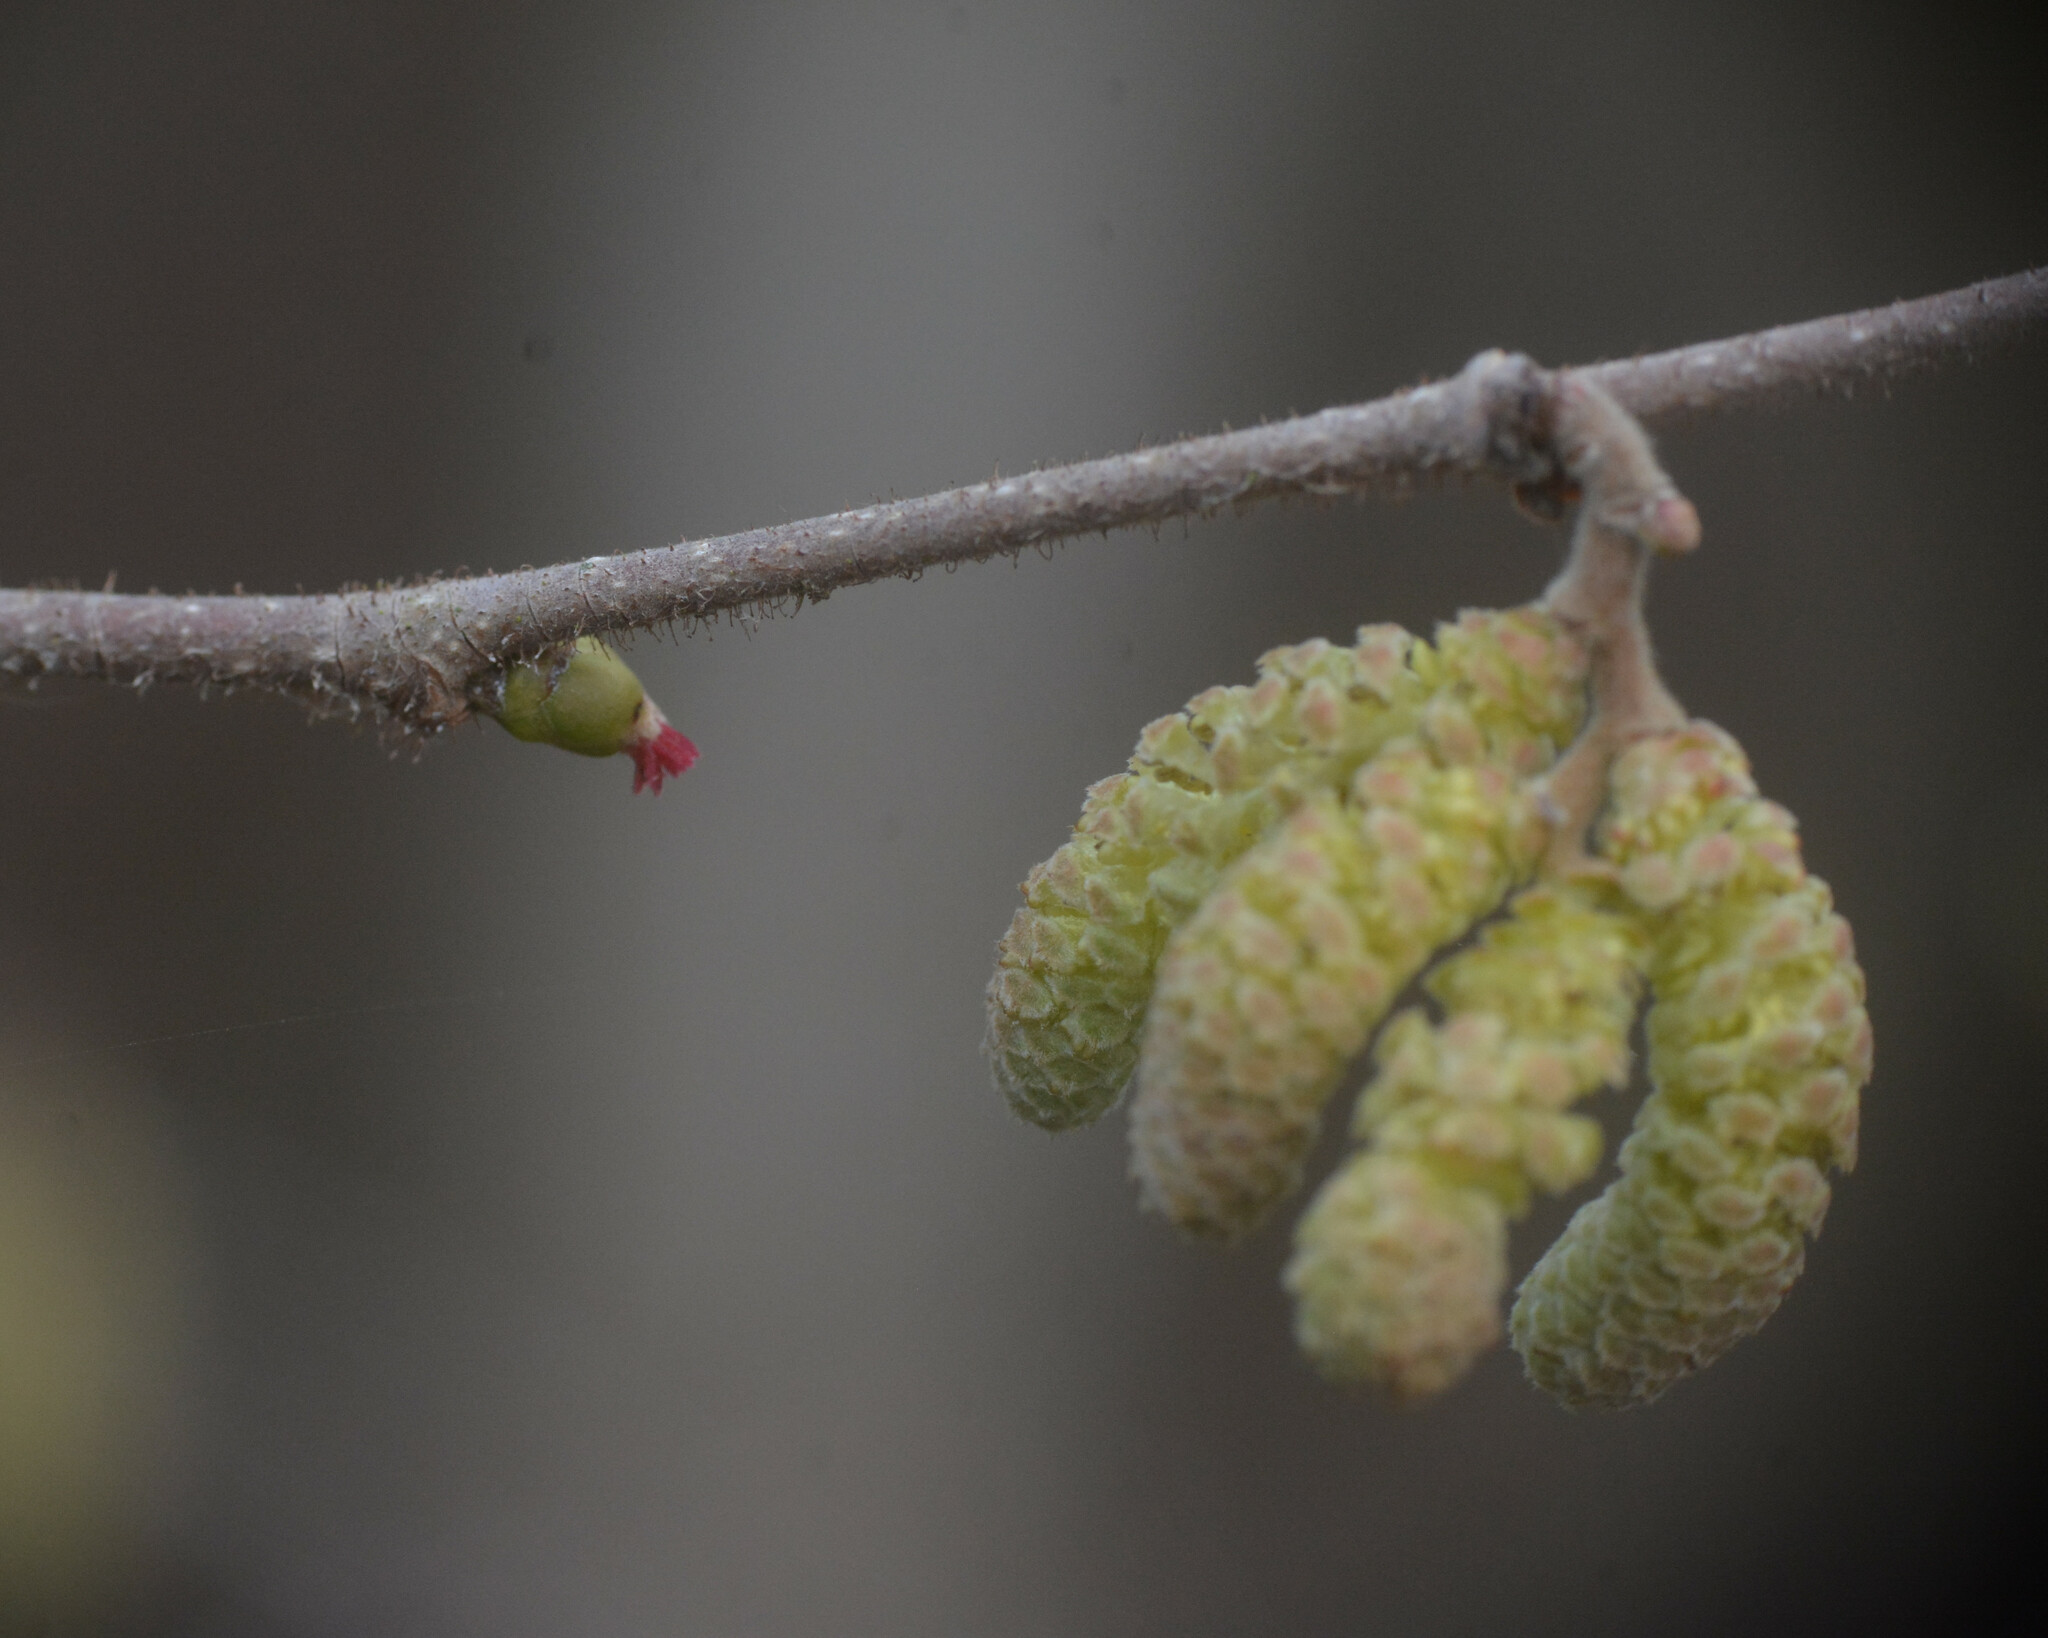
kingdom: Plantae
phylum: Tracheophyta
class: Magnoliopsida
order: Fagales
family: Betulaceae
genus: Corylus
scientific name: Corylus avellana
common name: European hazel
